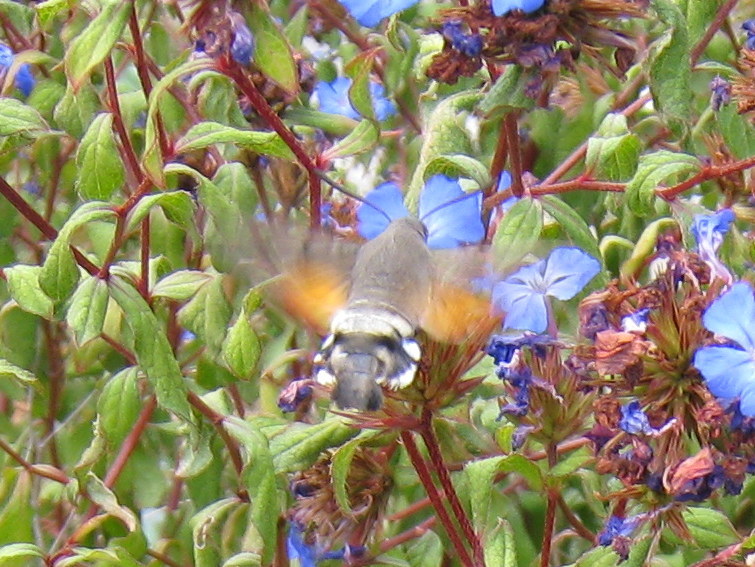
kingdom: Animalia
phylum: Arthropoda
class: Insecta
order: Lepidoptera
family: Sphingidae
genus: Macroglossum
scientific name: Macroglossum stellatarum
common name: Humming-bird hawk-moth
